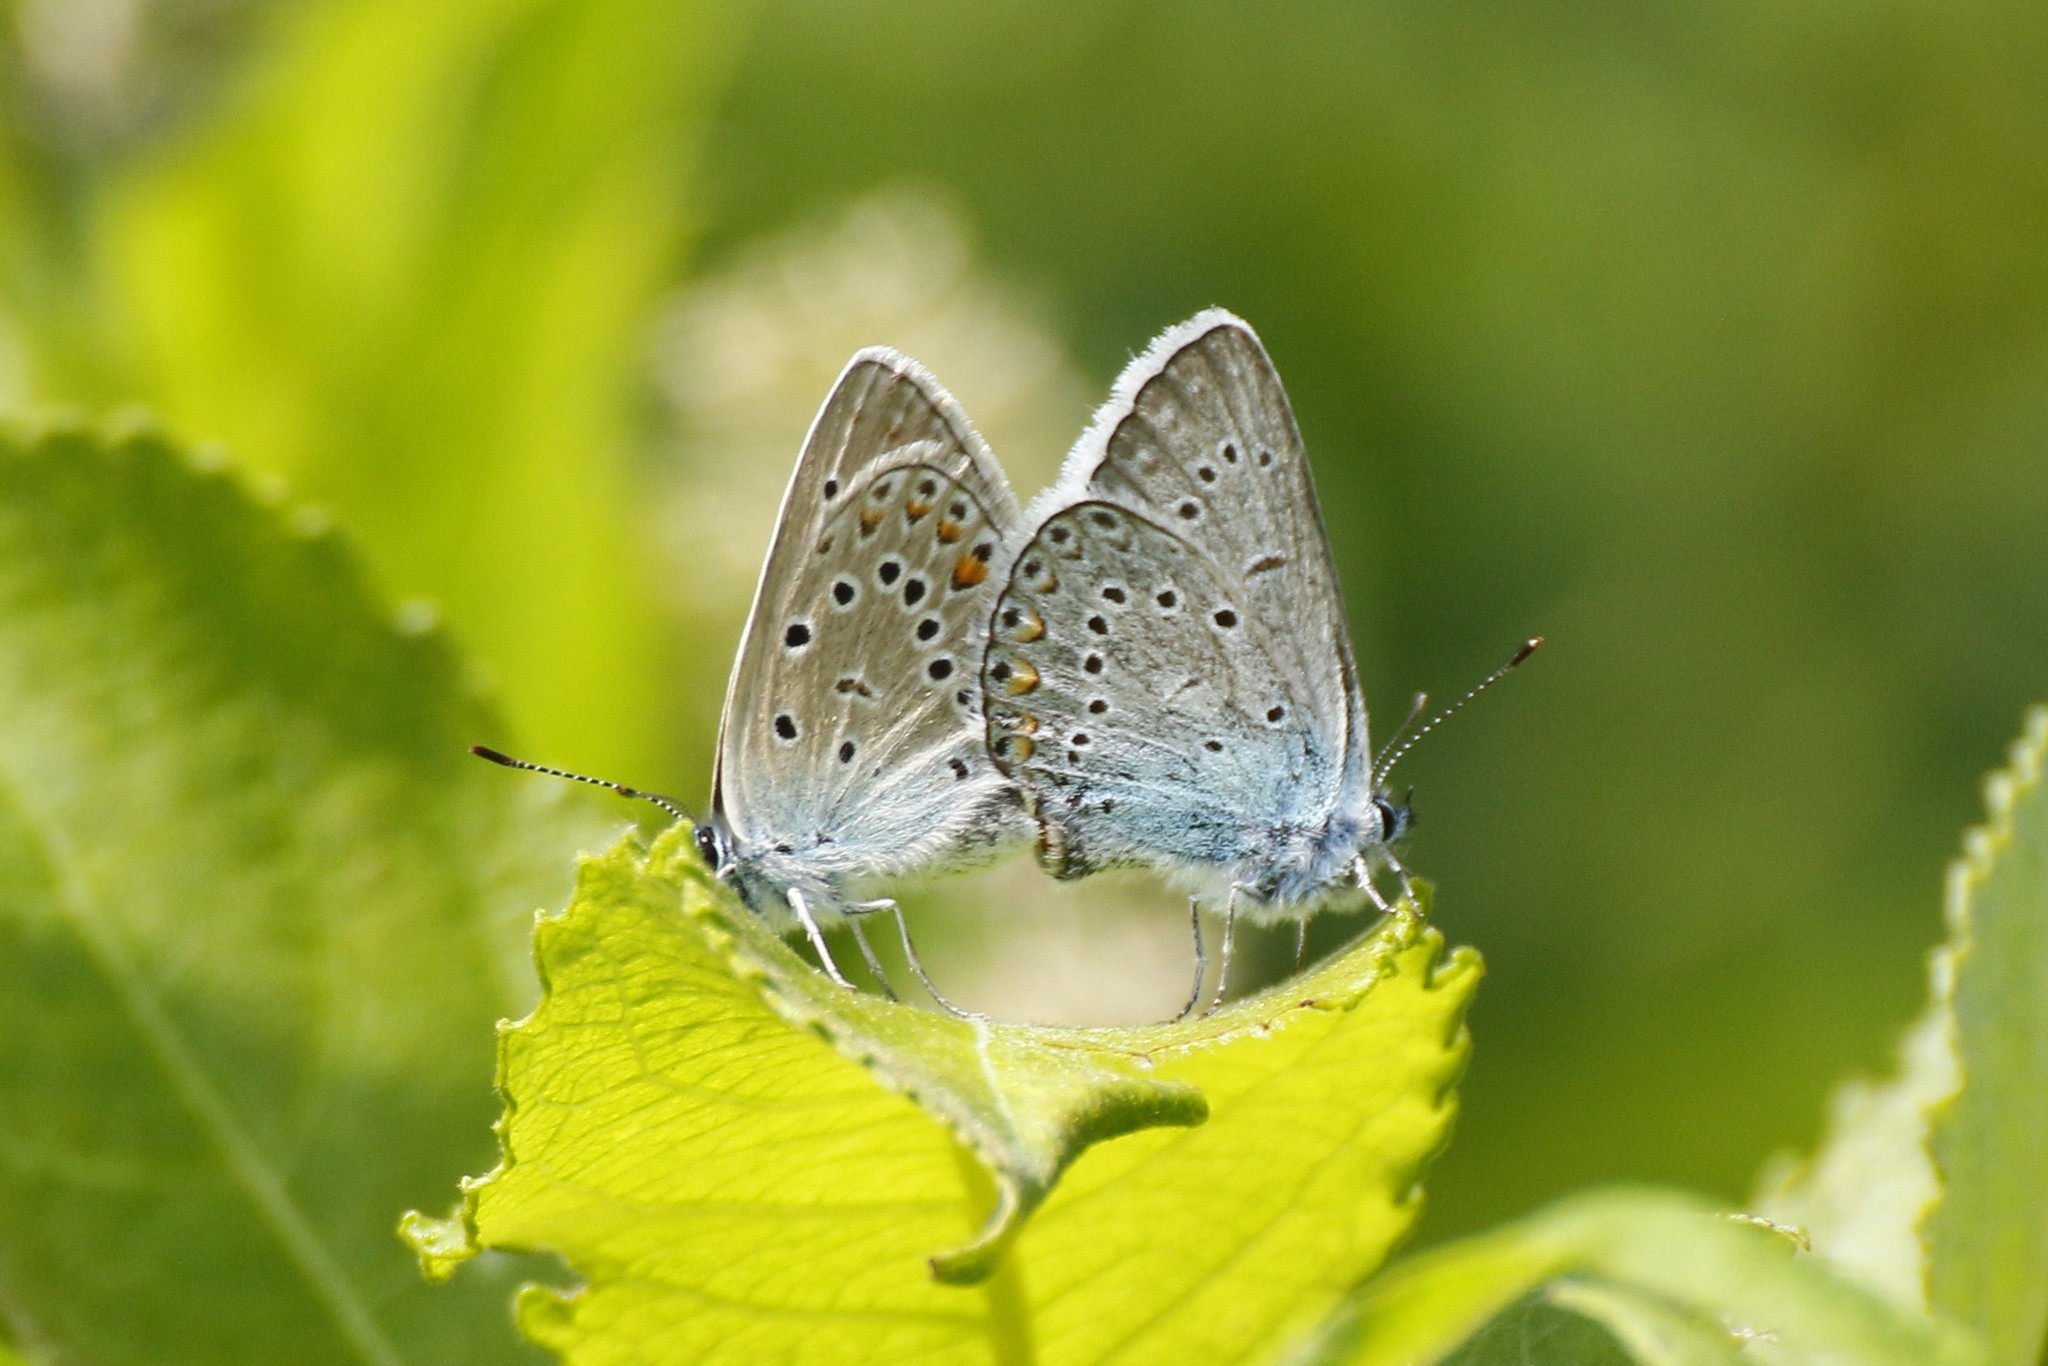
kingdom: Animalia
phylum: Arthropoda
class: Insecta
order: Lepidoptera
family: Lycaenidae
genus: Plebejus
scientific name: Plebejus amanda
